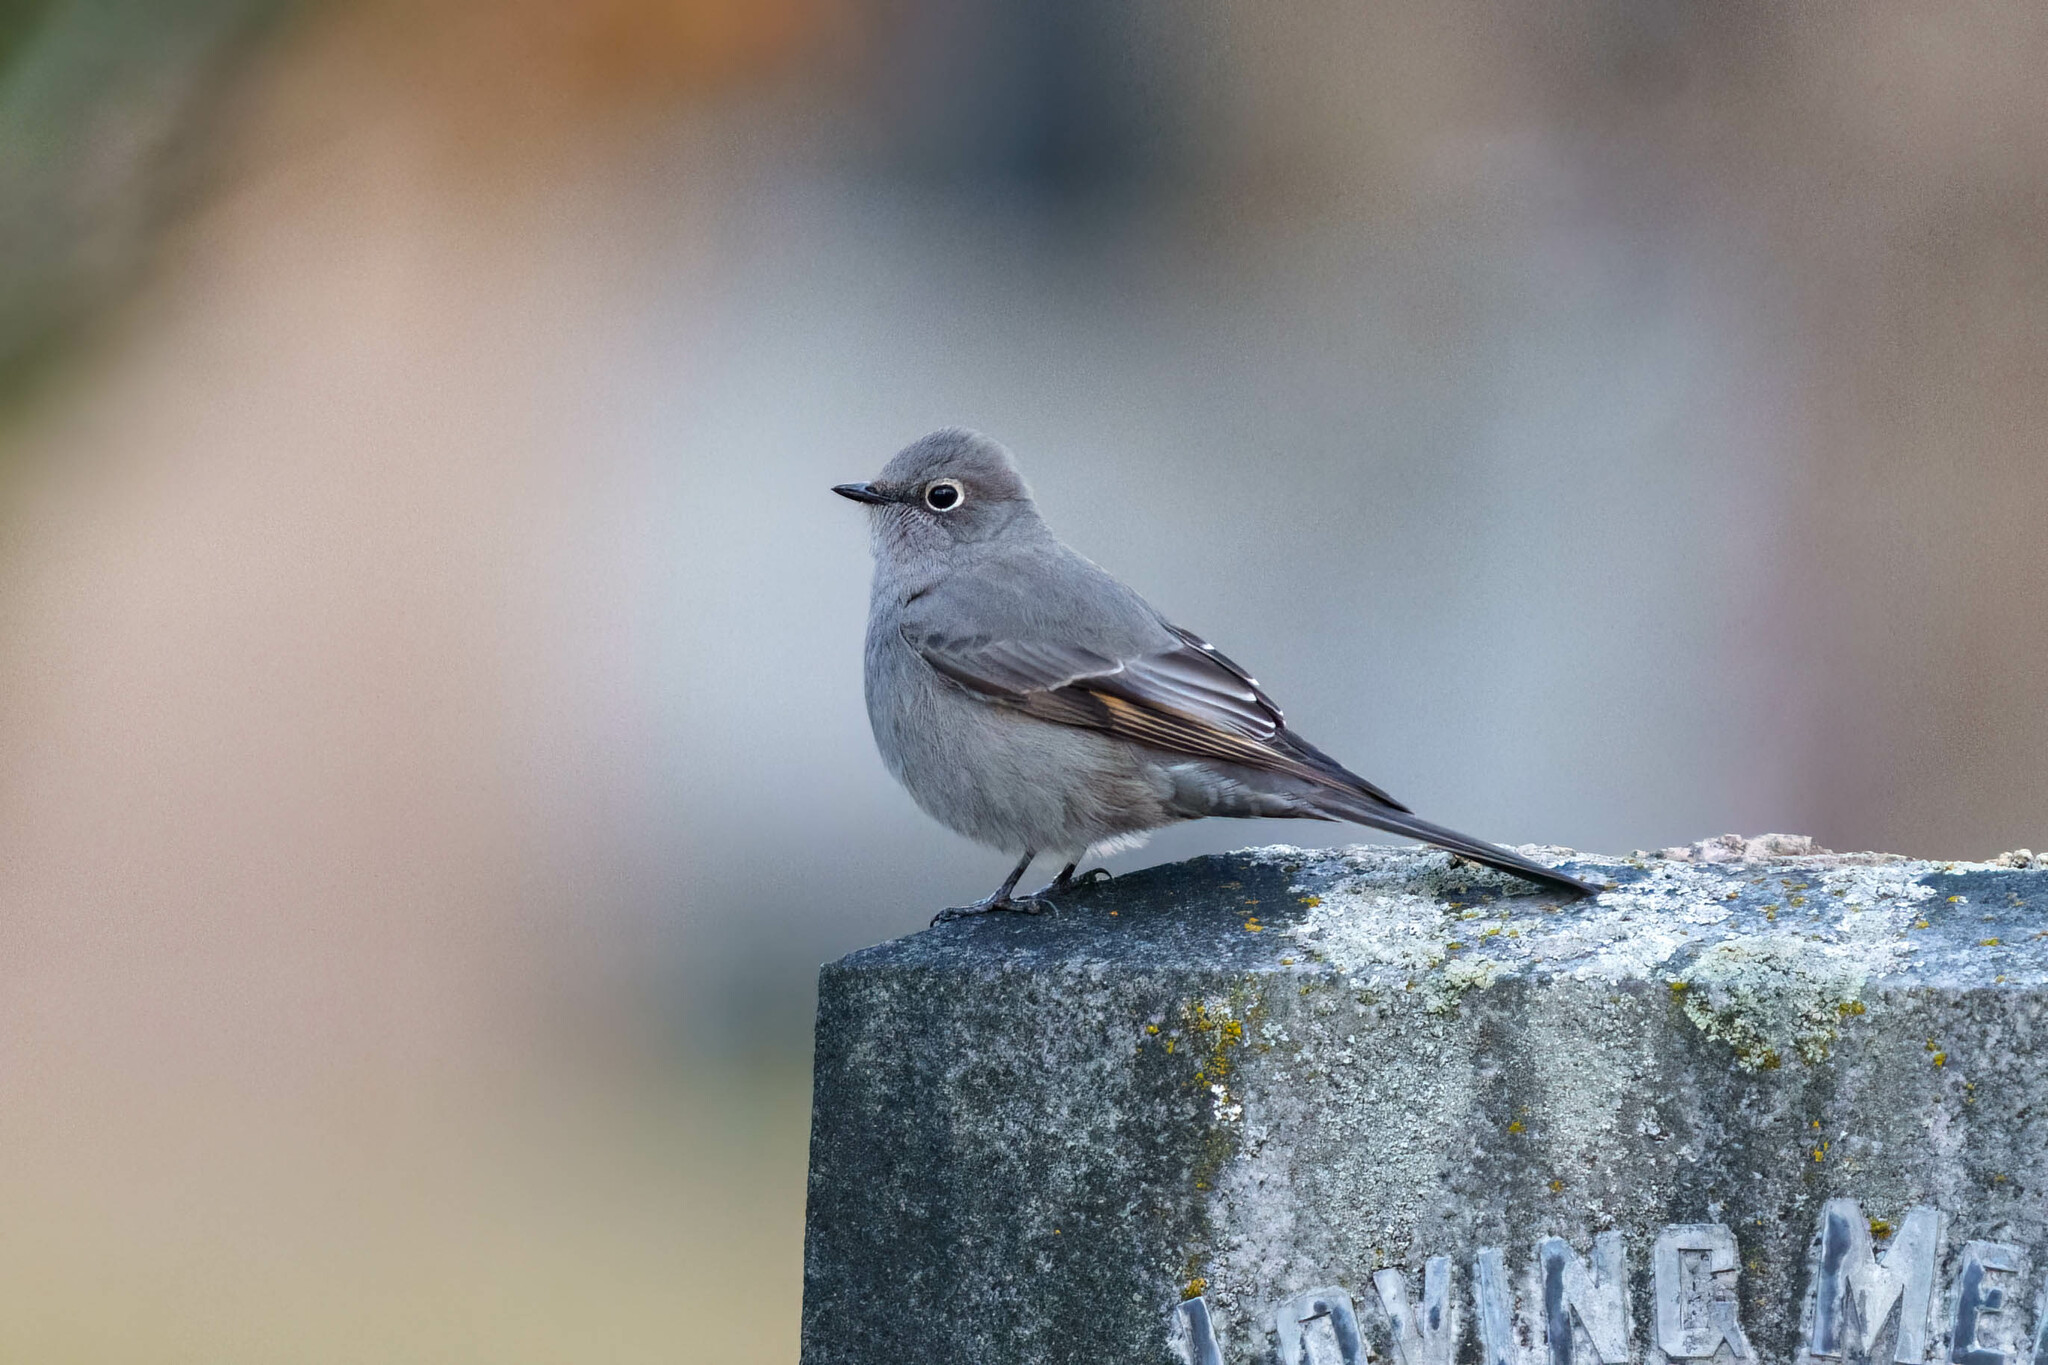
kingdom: Animalia
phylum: Chordata
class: Aves
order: Passeriformes
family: Turdidae
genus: Myadestes
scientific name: Myadestes townsendi
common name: Townsend's solitaire
